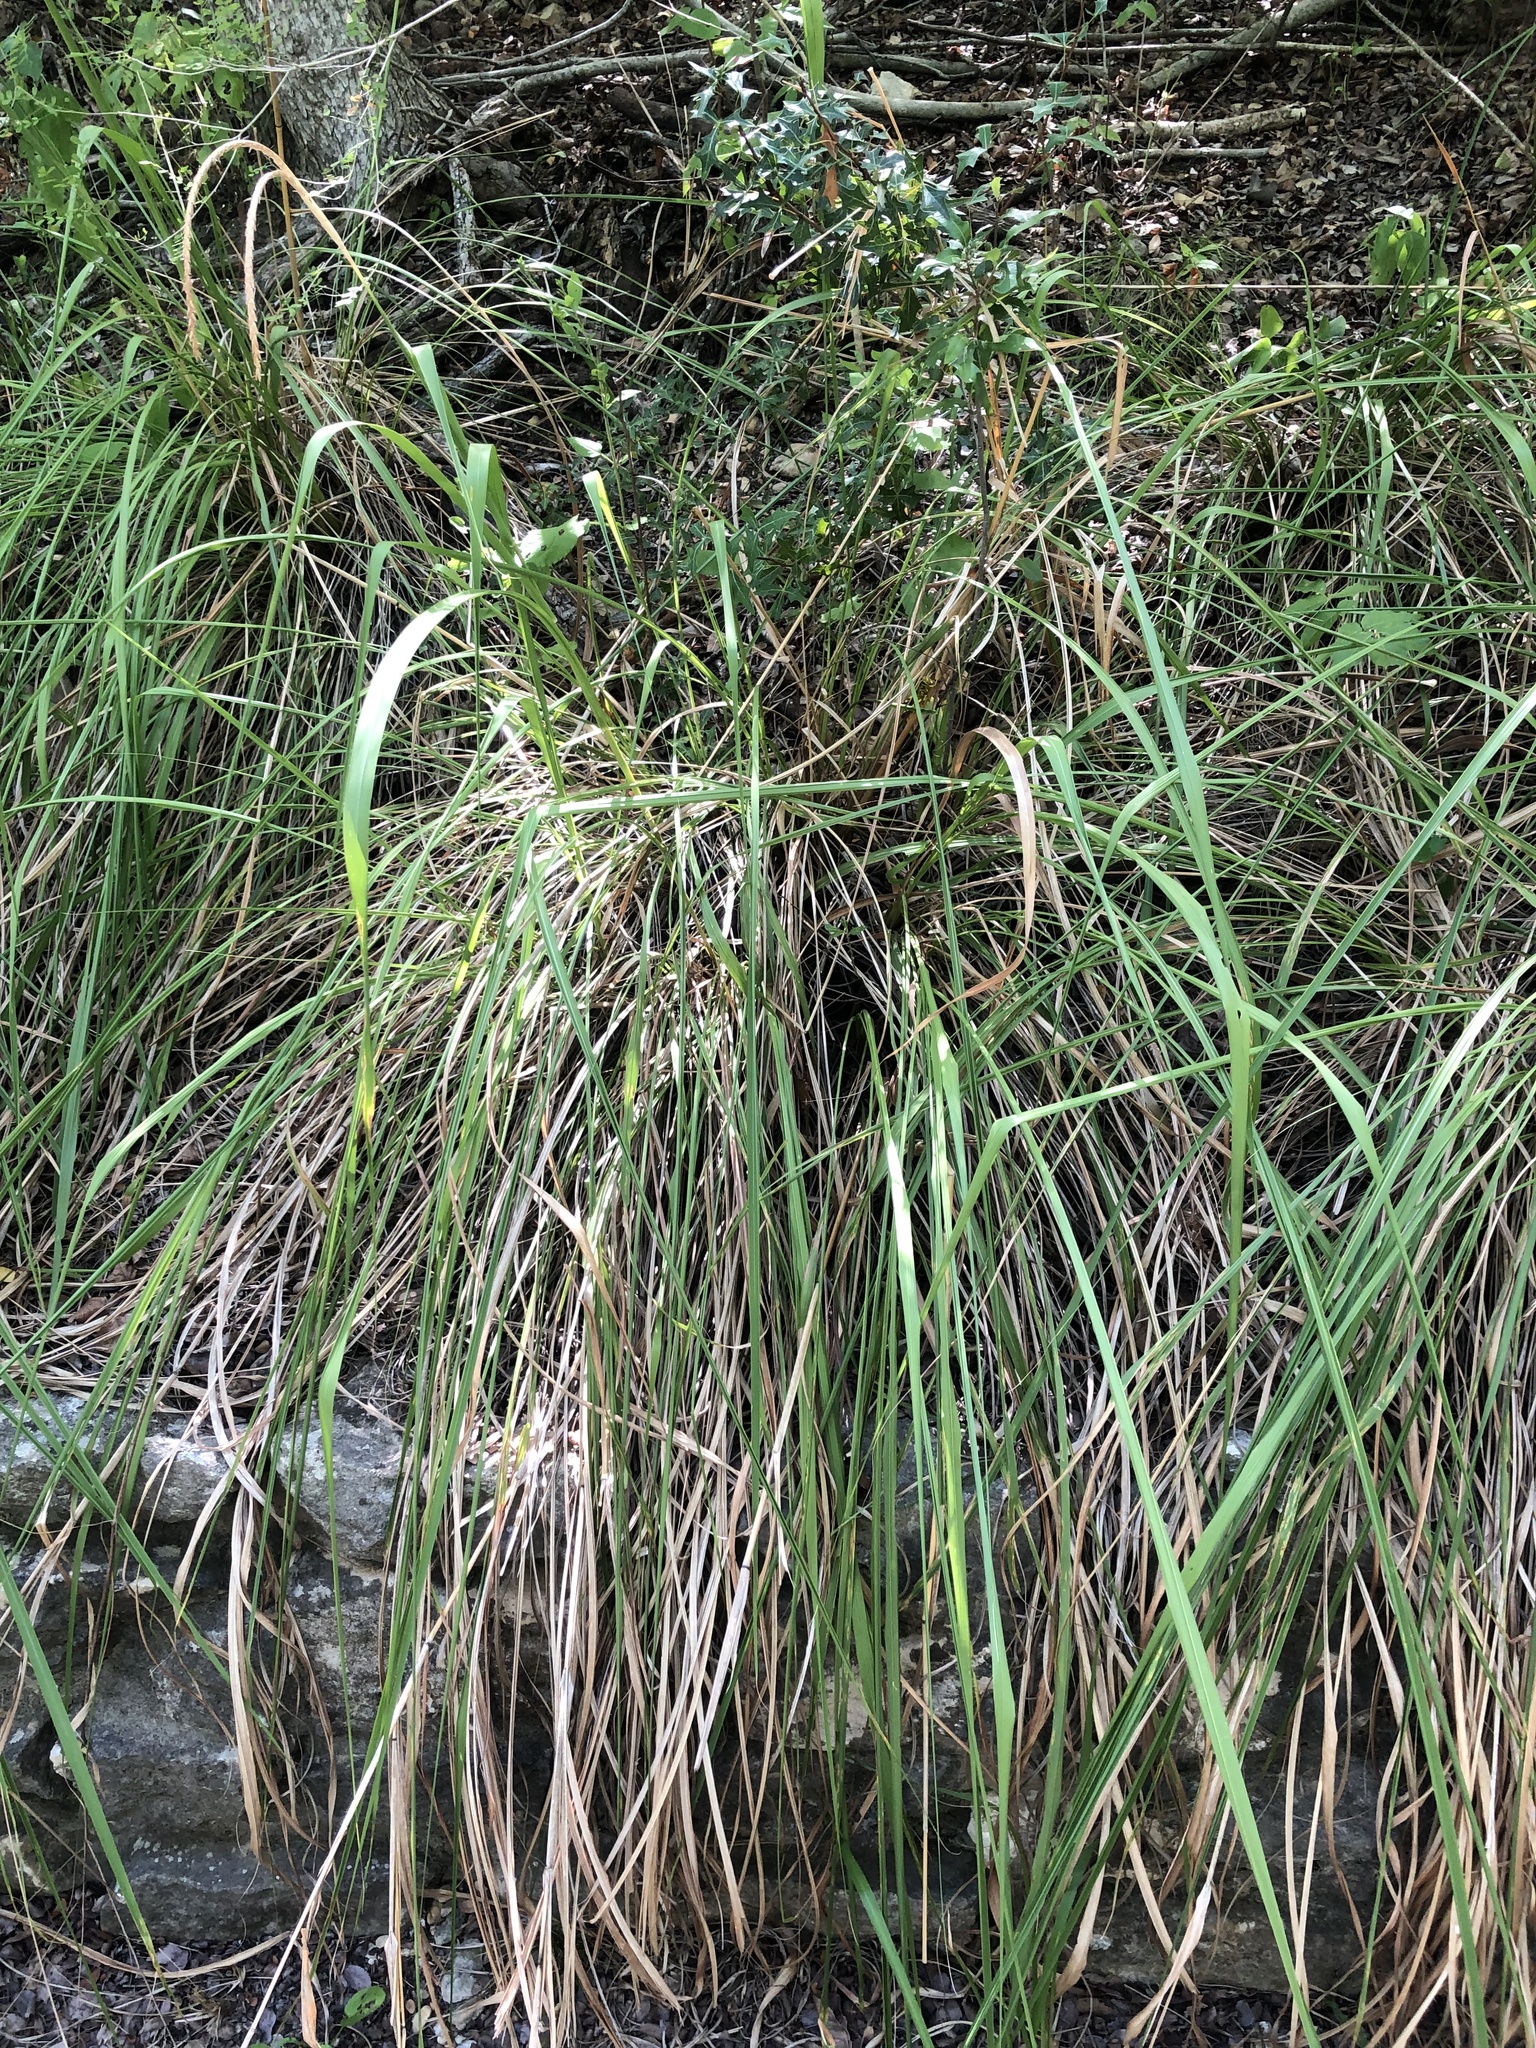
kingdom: Plantae
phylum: Tracheophyta
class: Liliopsida
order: Poales
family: Poaceae
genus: Tripsacum
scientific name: Tripsacum dactyloides
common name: Buffalo-grass
